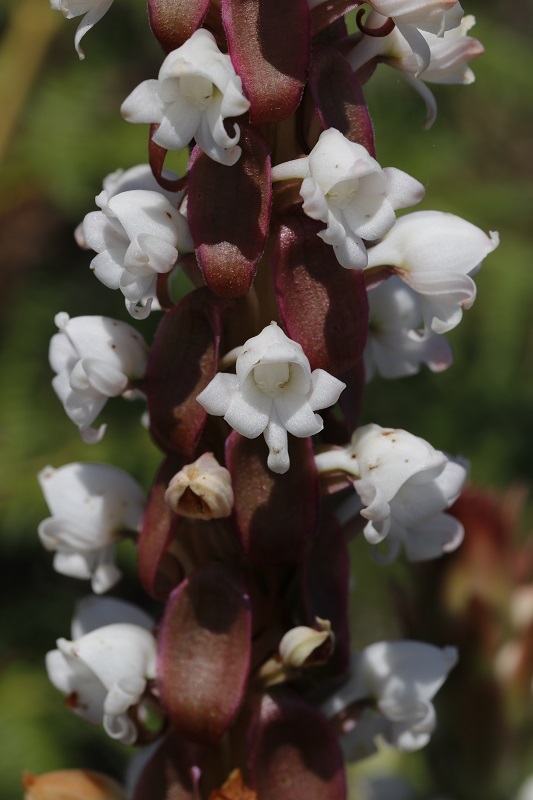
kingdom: Plantae
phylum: Tracheophyta
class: Liliopsida
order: Asparagales
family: Orchidaceae
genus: Satyrium
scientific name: Satyrium acuminatum
